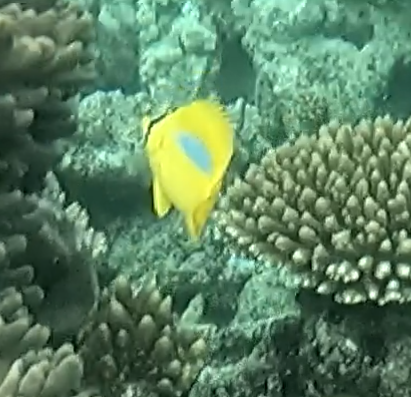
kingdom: Animalia
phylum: Chordata
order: Perciformes
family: Chaetodontidae
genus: Chaetodon
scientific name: Chaetodon plebeius
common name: Bluespot butterflyfish
